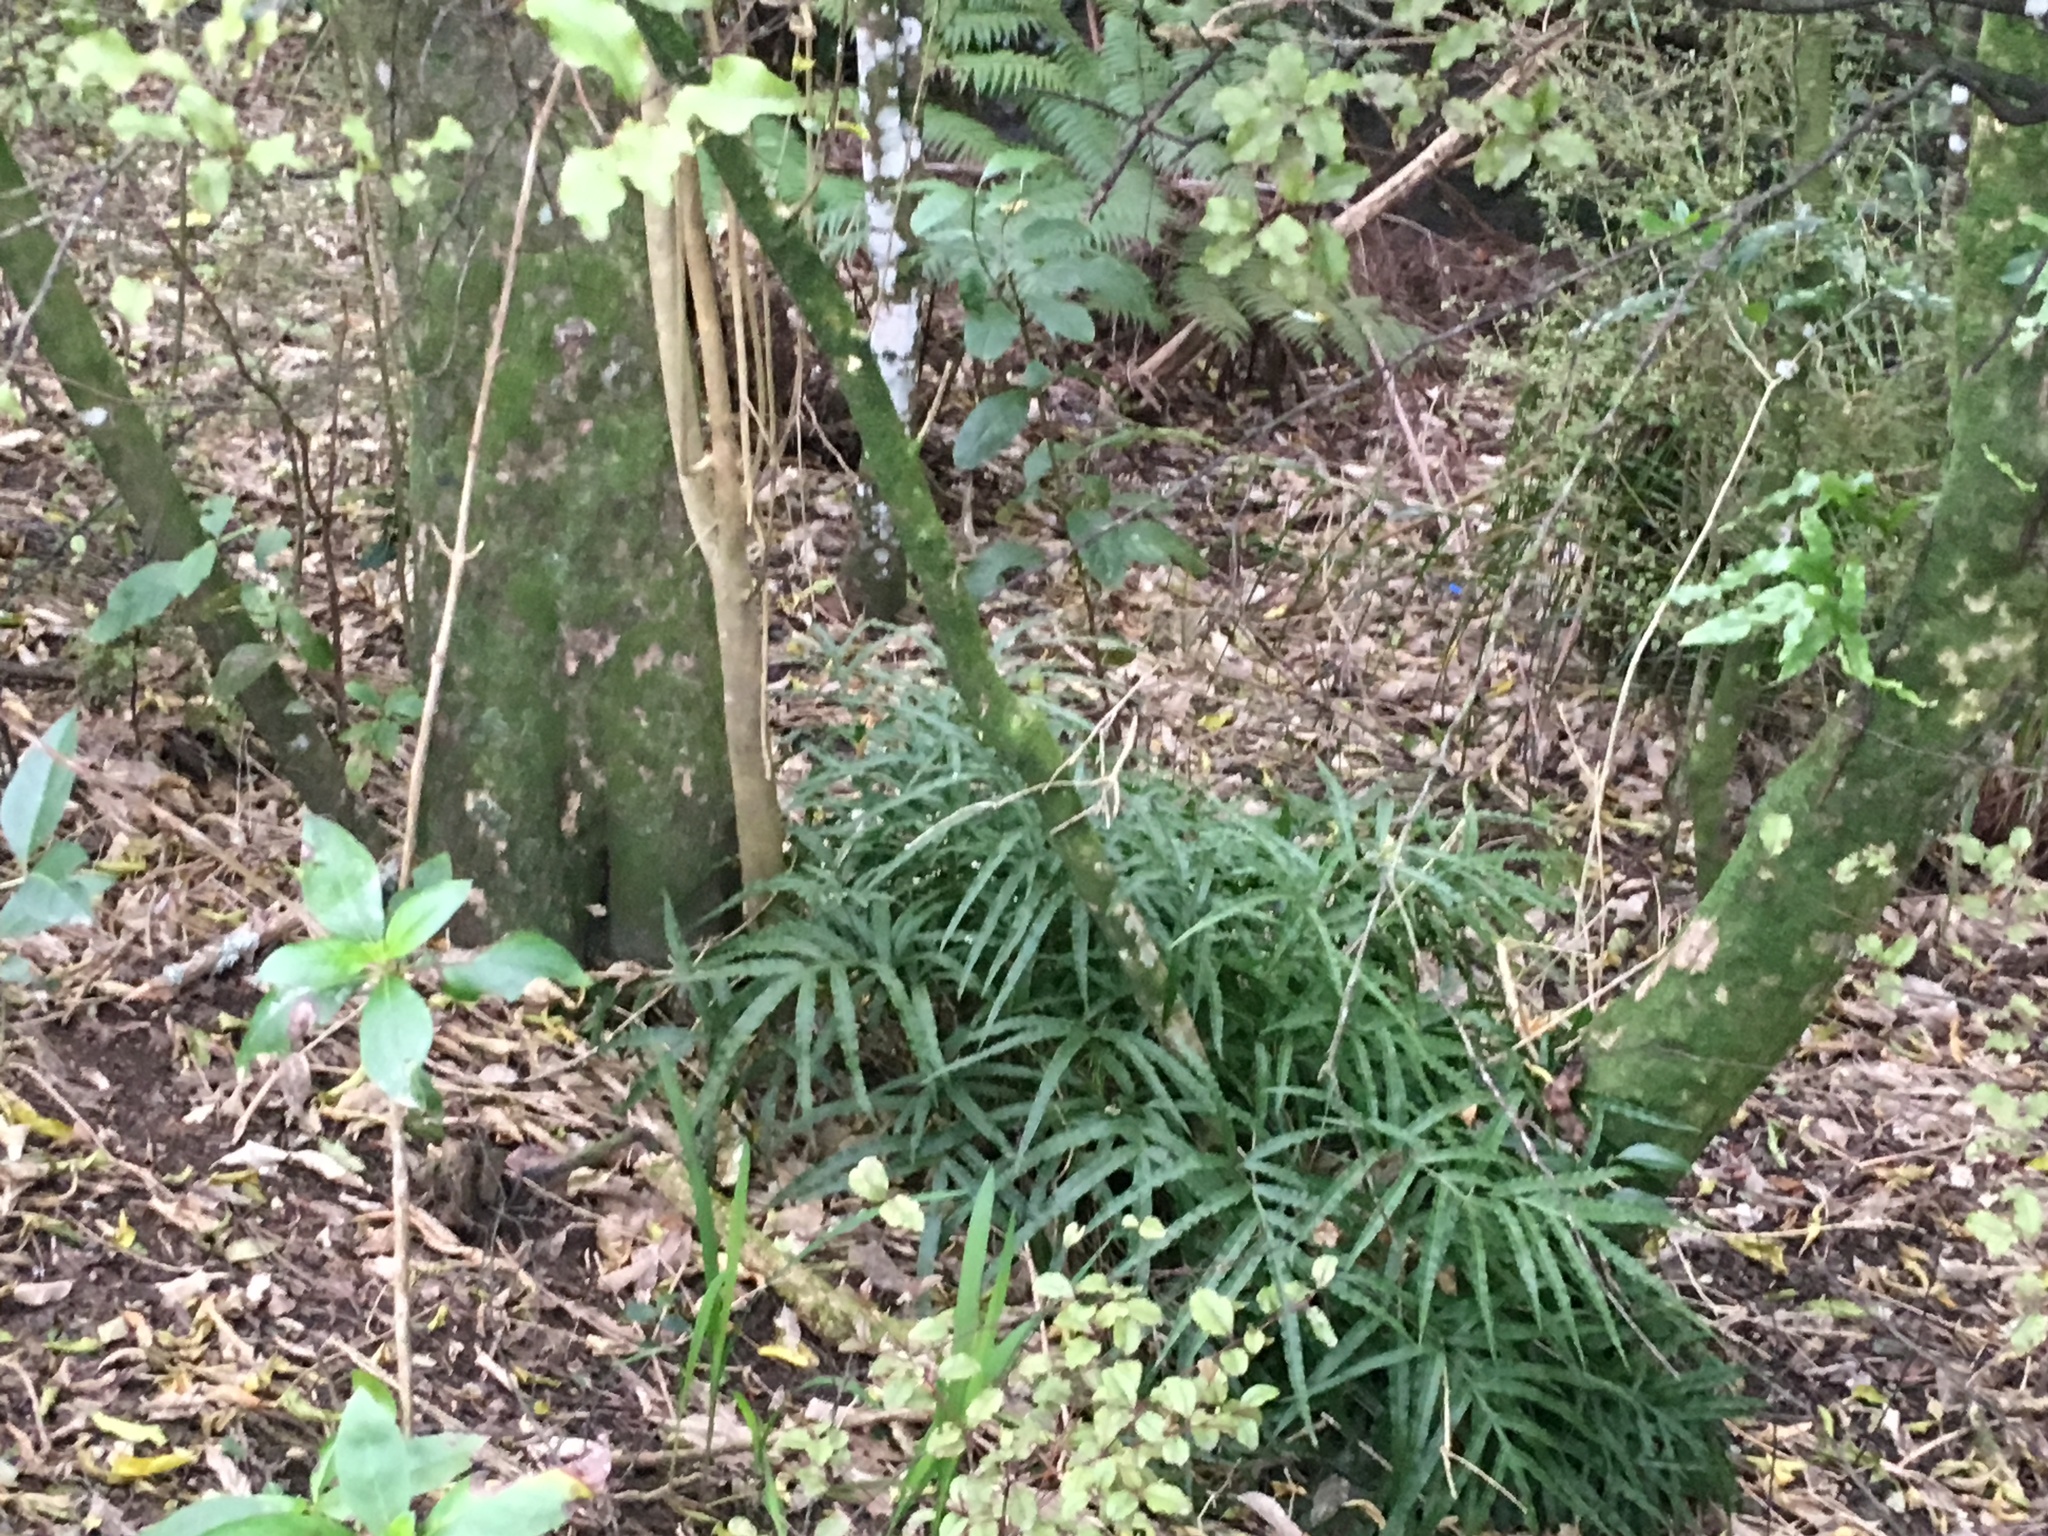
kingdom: Plantae
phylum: Tracheophyta
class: Polypodiopsida
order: Polypodiales
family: Pteridaceae
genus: Pteris
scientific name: Pteris cretica
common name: Ribbon fern
